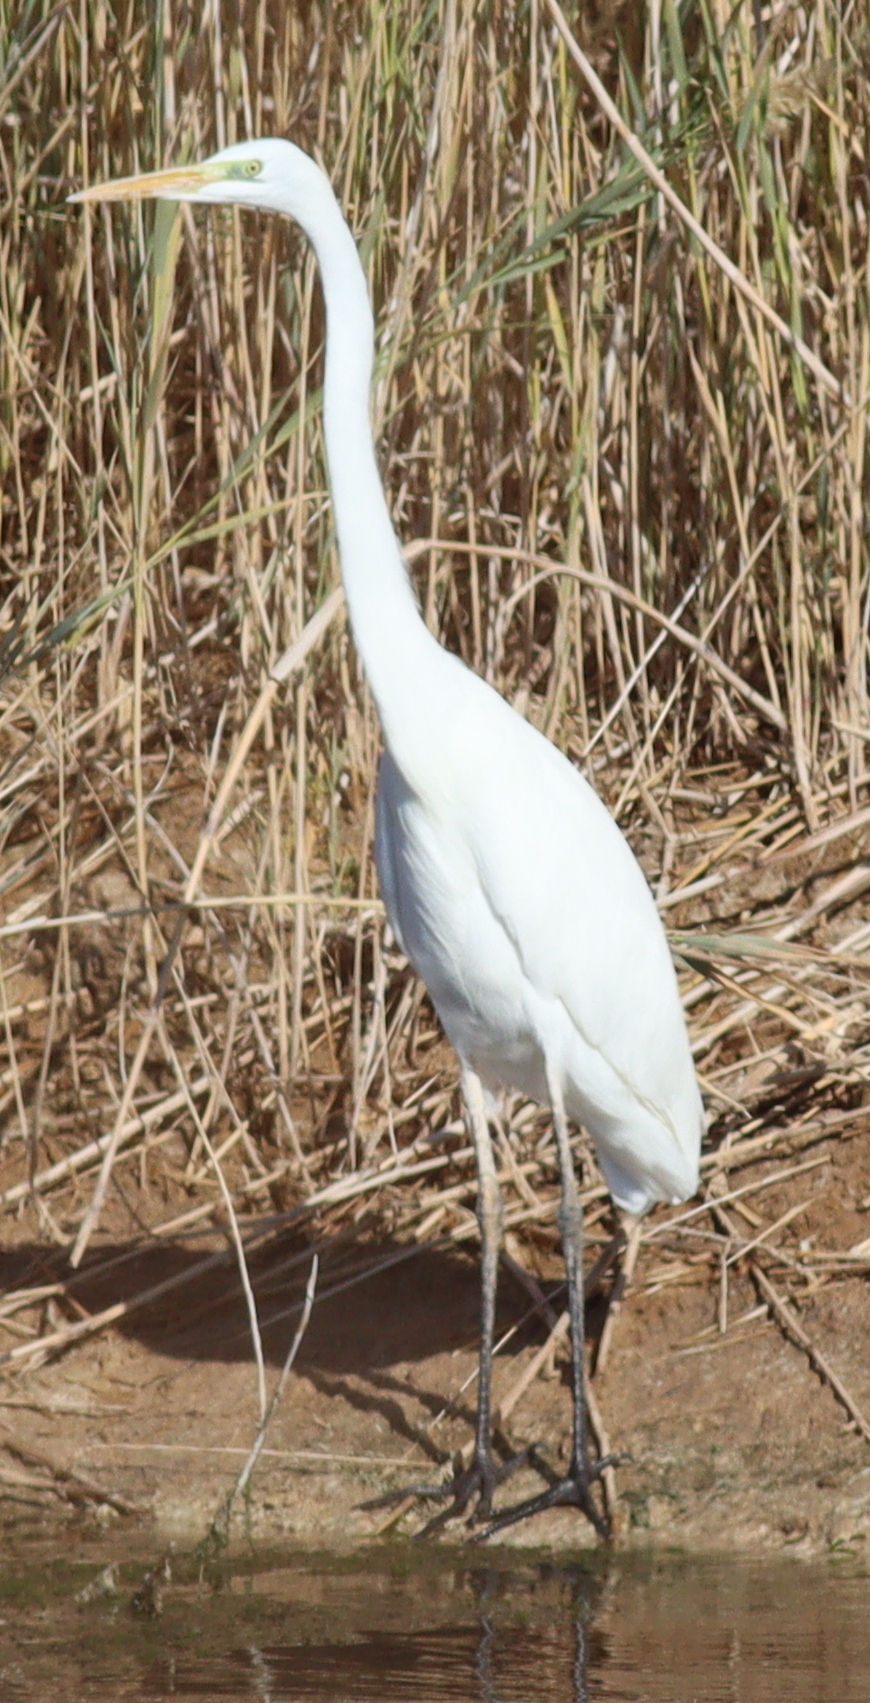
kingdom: Animalia
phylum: Chordata
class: Aves
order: Pelecaniformes
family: Ardeidae
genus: Ardea
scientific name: Ardea alba
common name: Great egret
